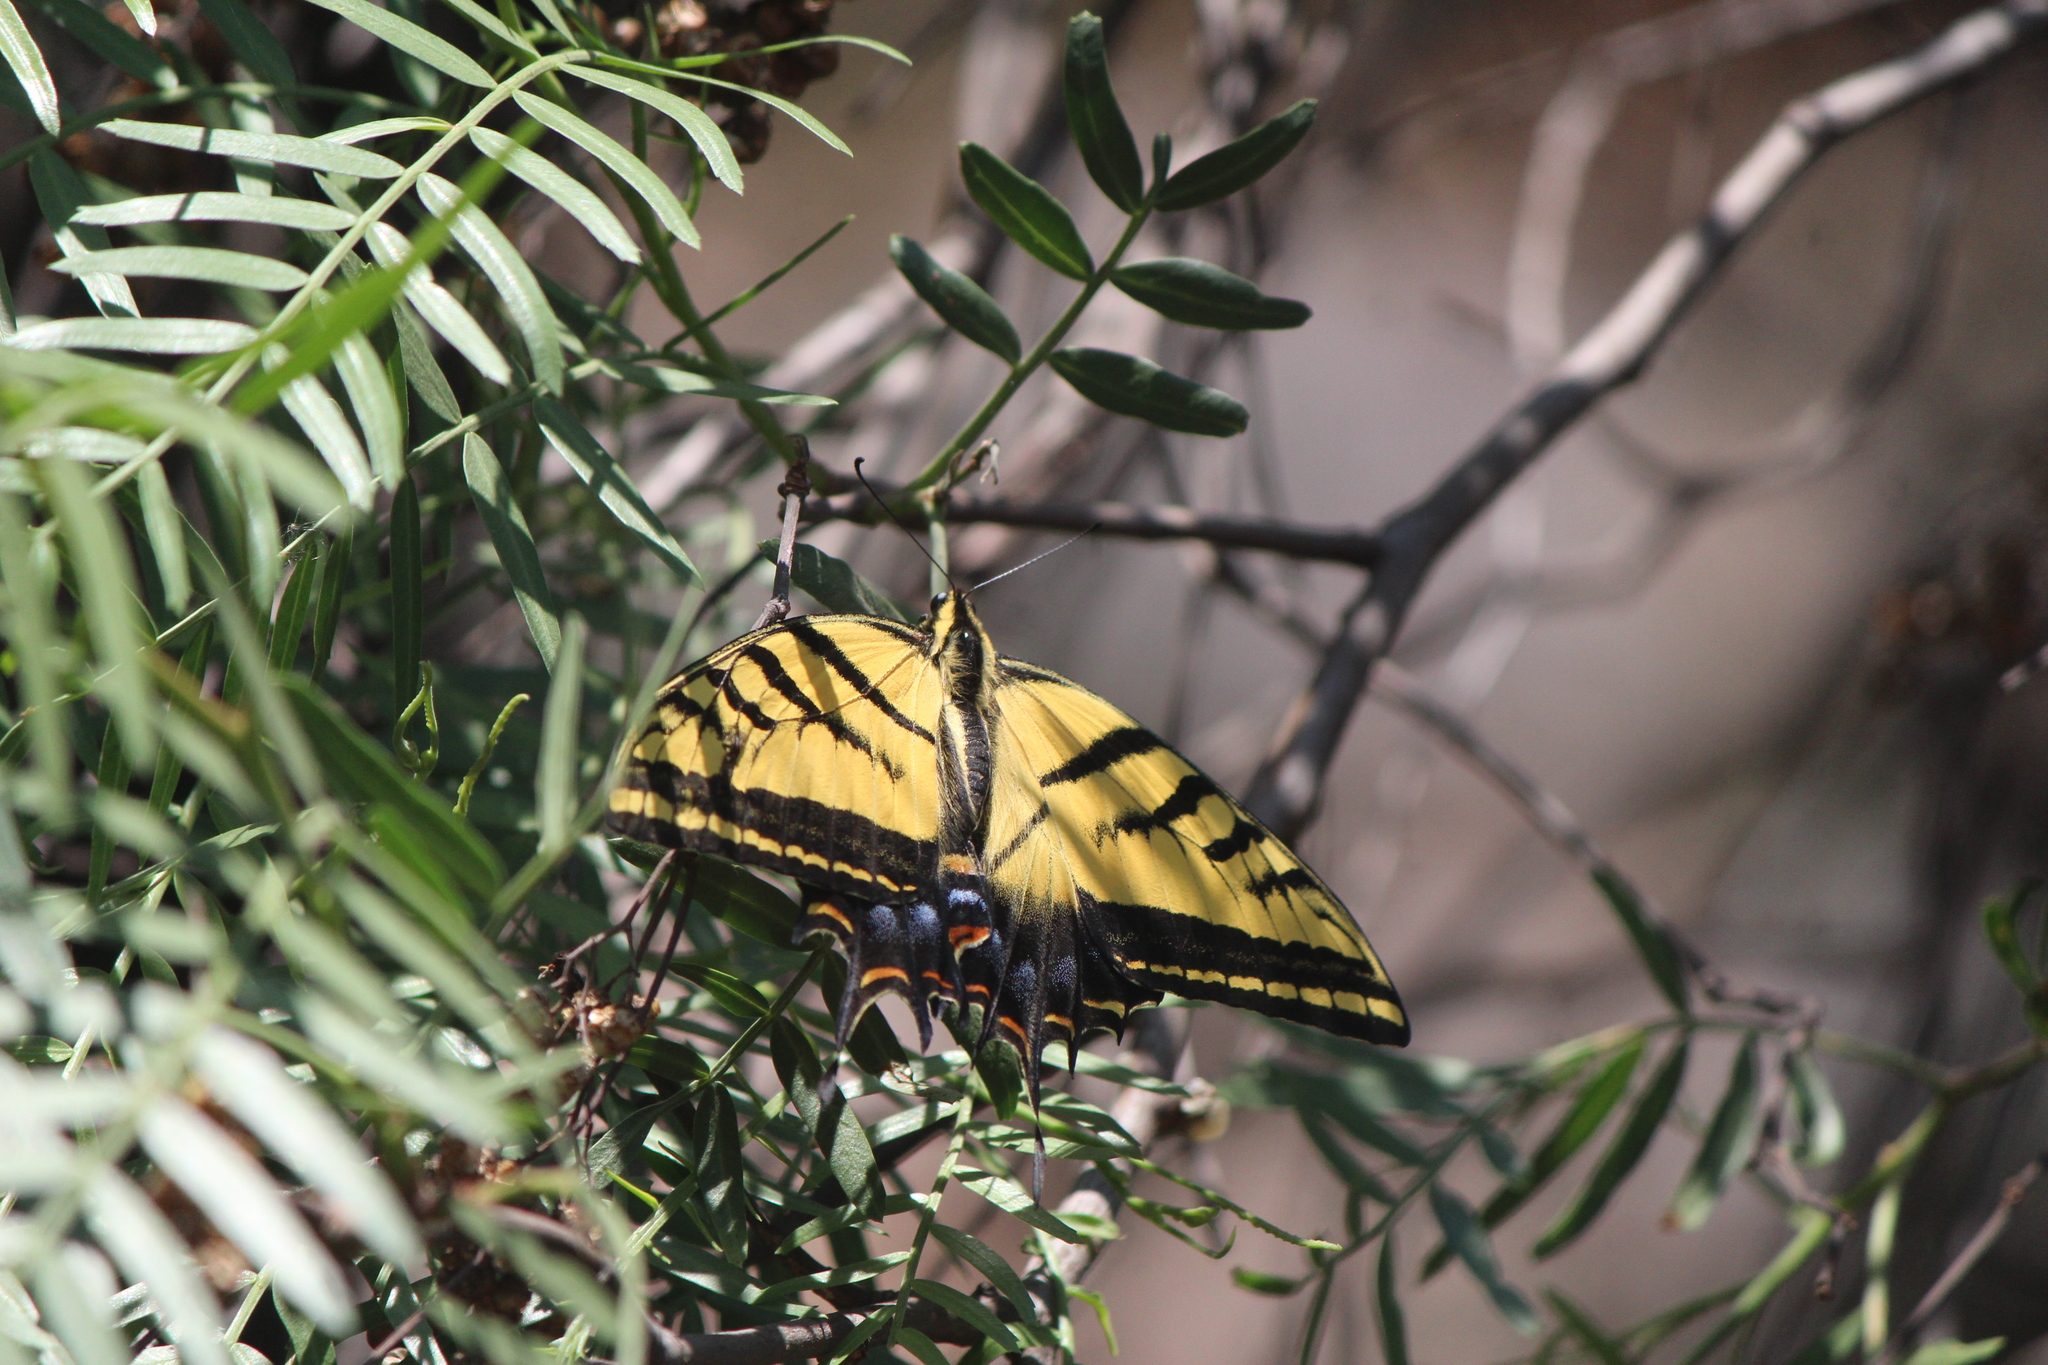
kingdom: Animalia
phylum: Arthropoda
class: Insecta
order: Lepidoptera
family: Papilionidae
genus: Papilio
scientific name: Papilio multicaudata
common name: Two-tailed tiger swallowtail
